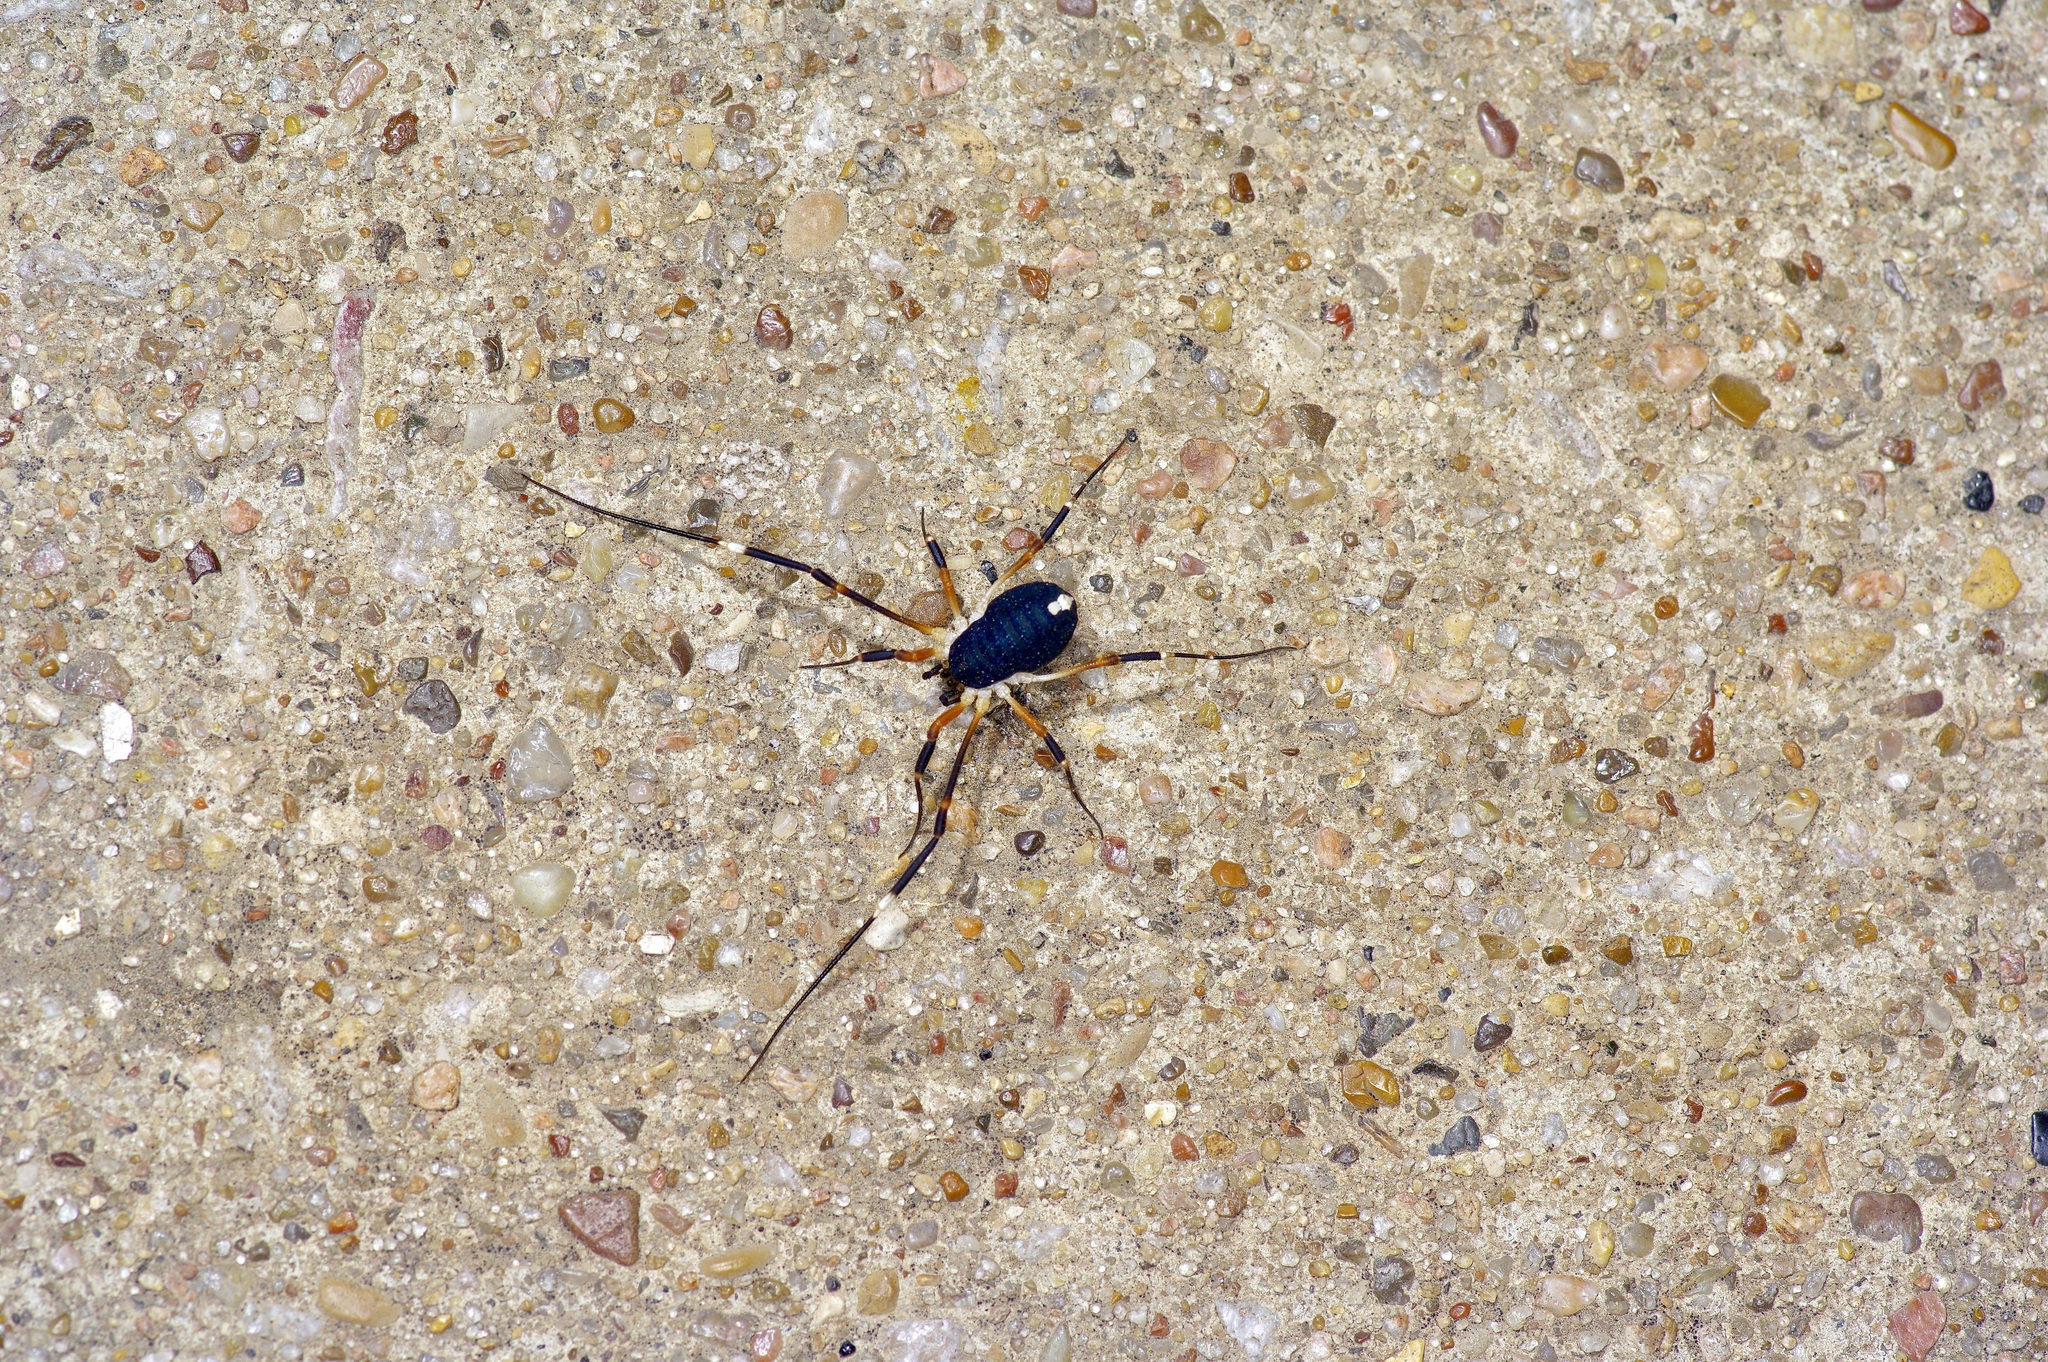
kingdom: Animalia
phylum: Arthropoda
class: Arachnida
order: Opiliones
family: Globipedidae
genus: Dalquestia
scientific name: Dalquestia formosa
